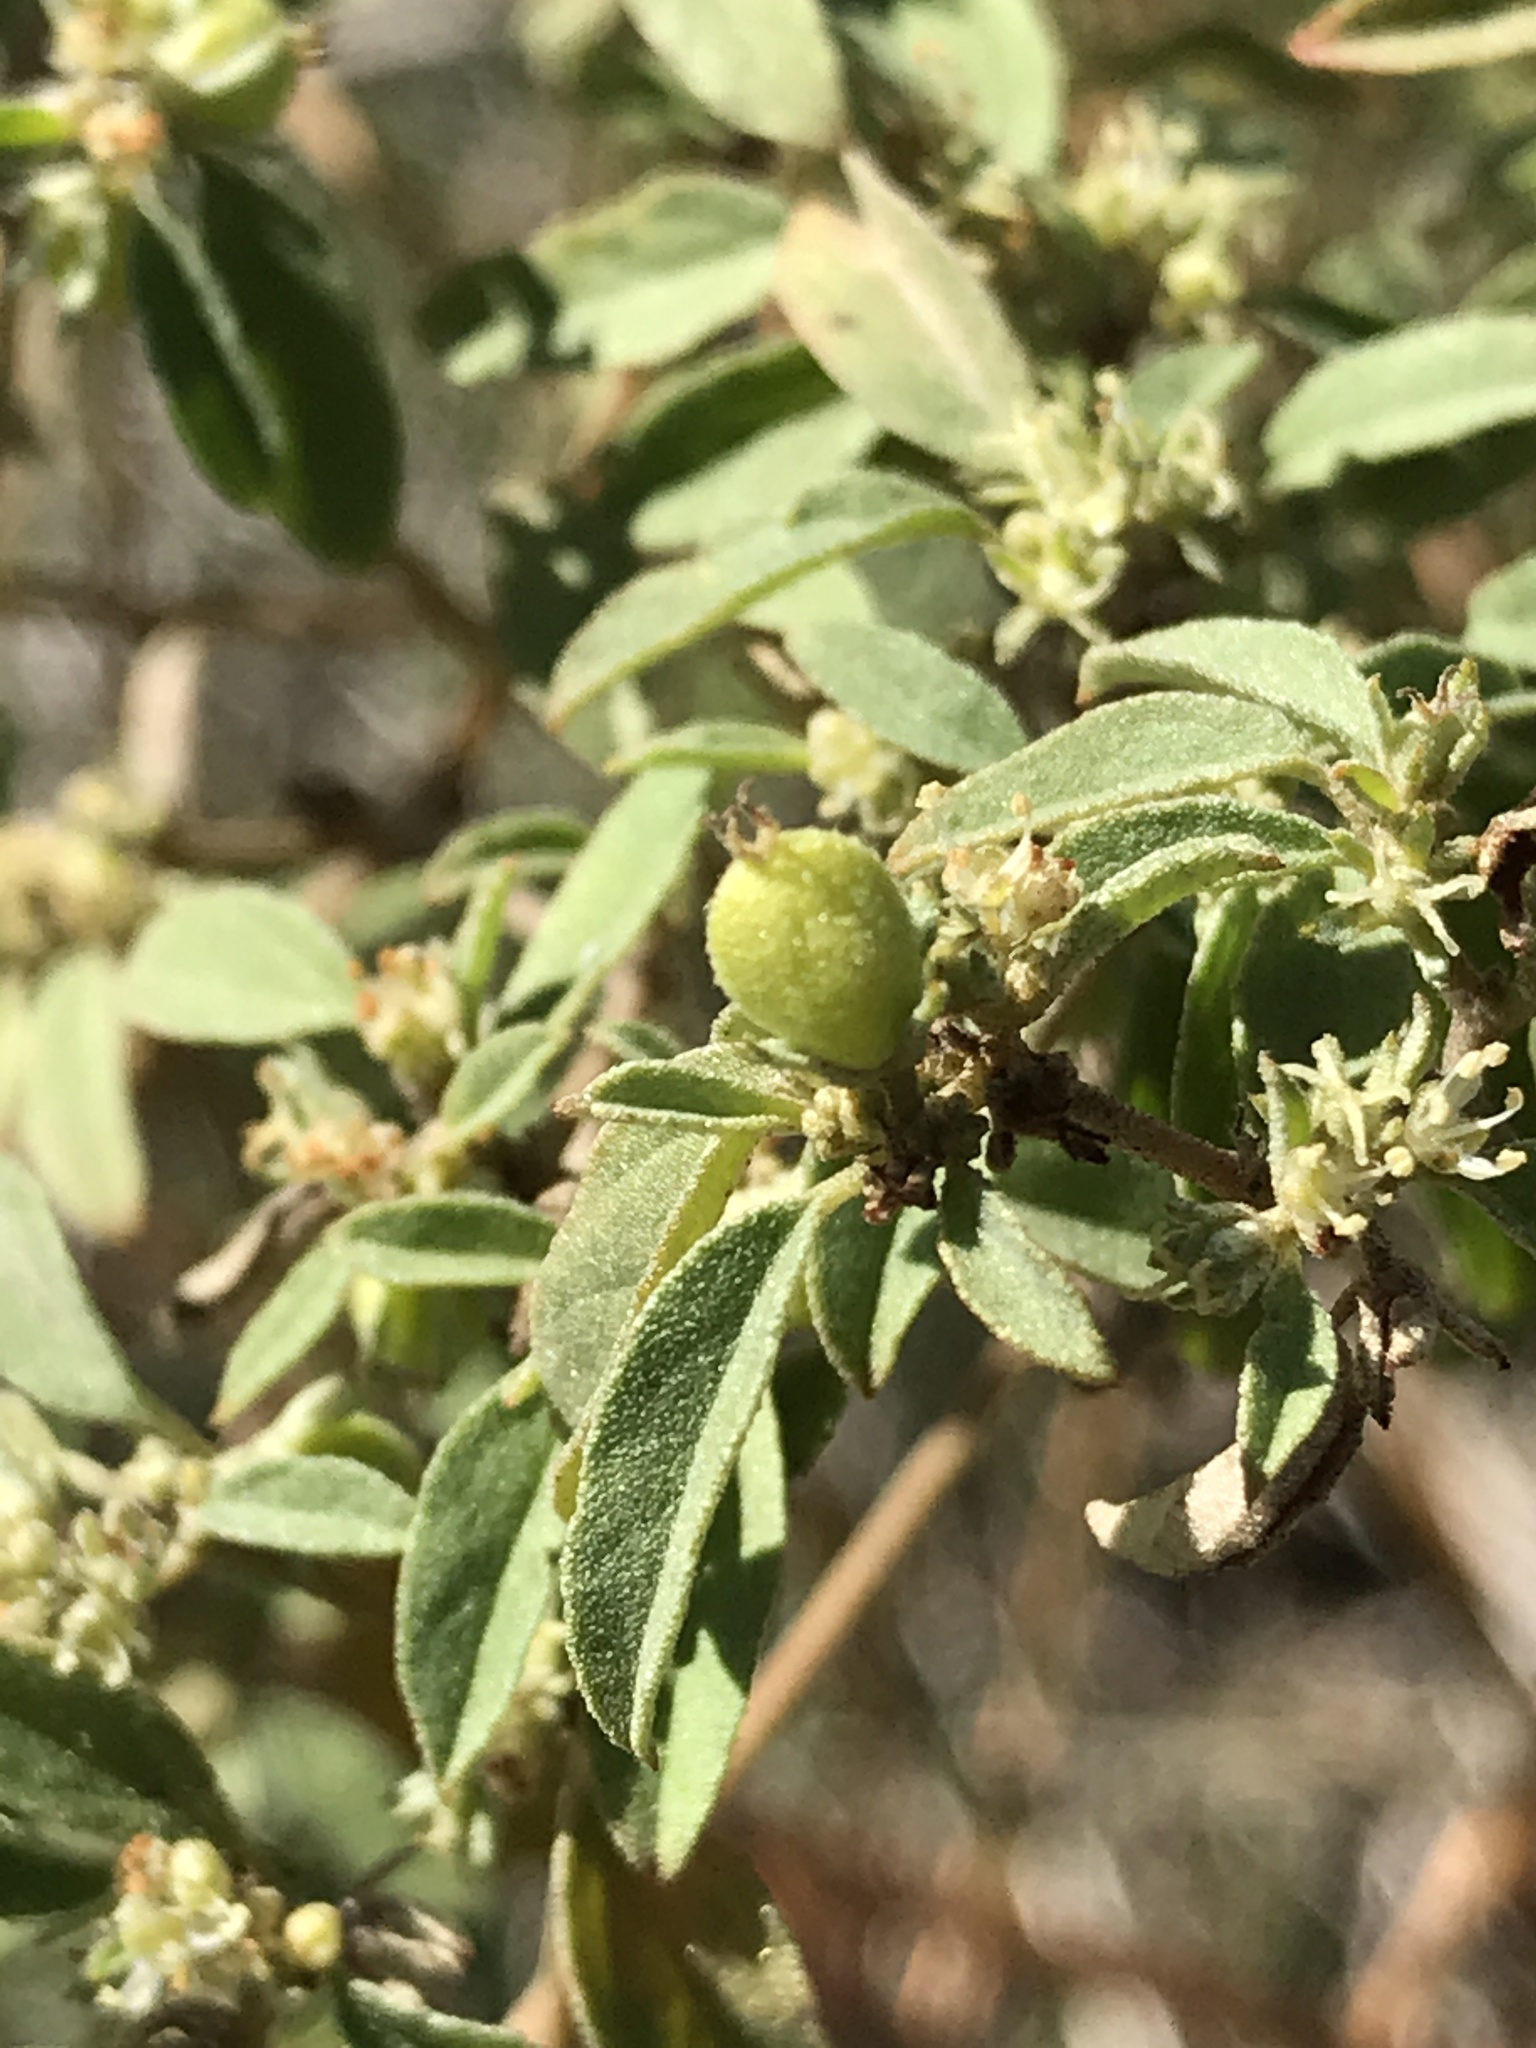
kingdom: Plantae
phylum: Tracheophyta
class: Magnoliopsida
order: Malpighiales
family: Euphorbiaceae
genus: Croton
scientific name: Croton monanthogynus
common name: One-seed croton
